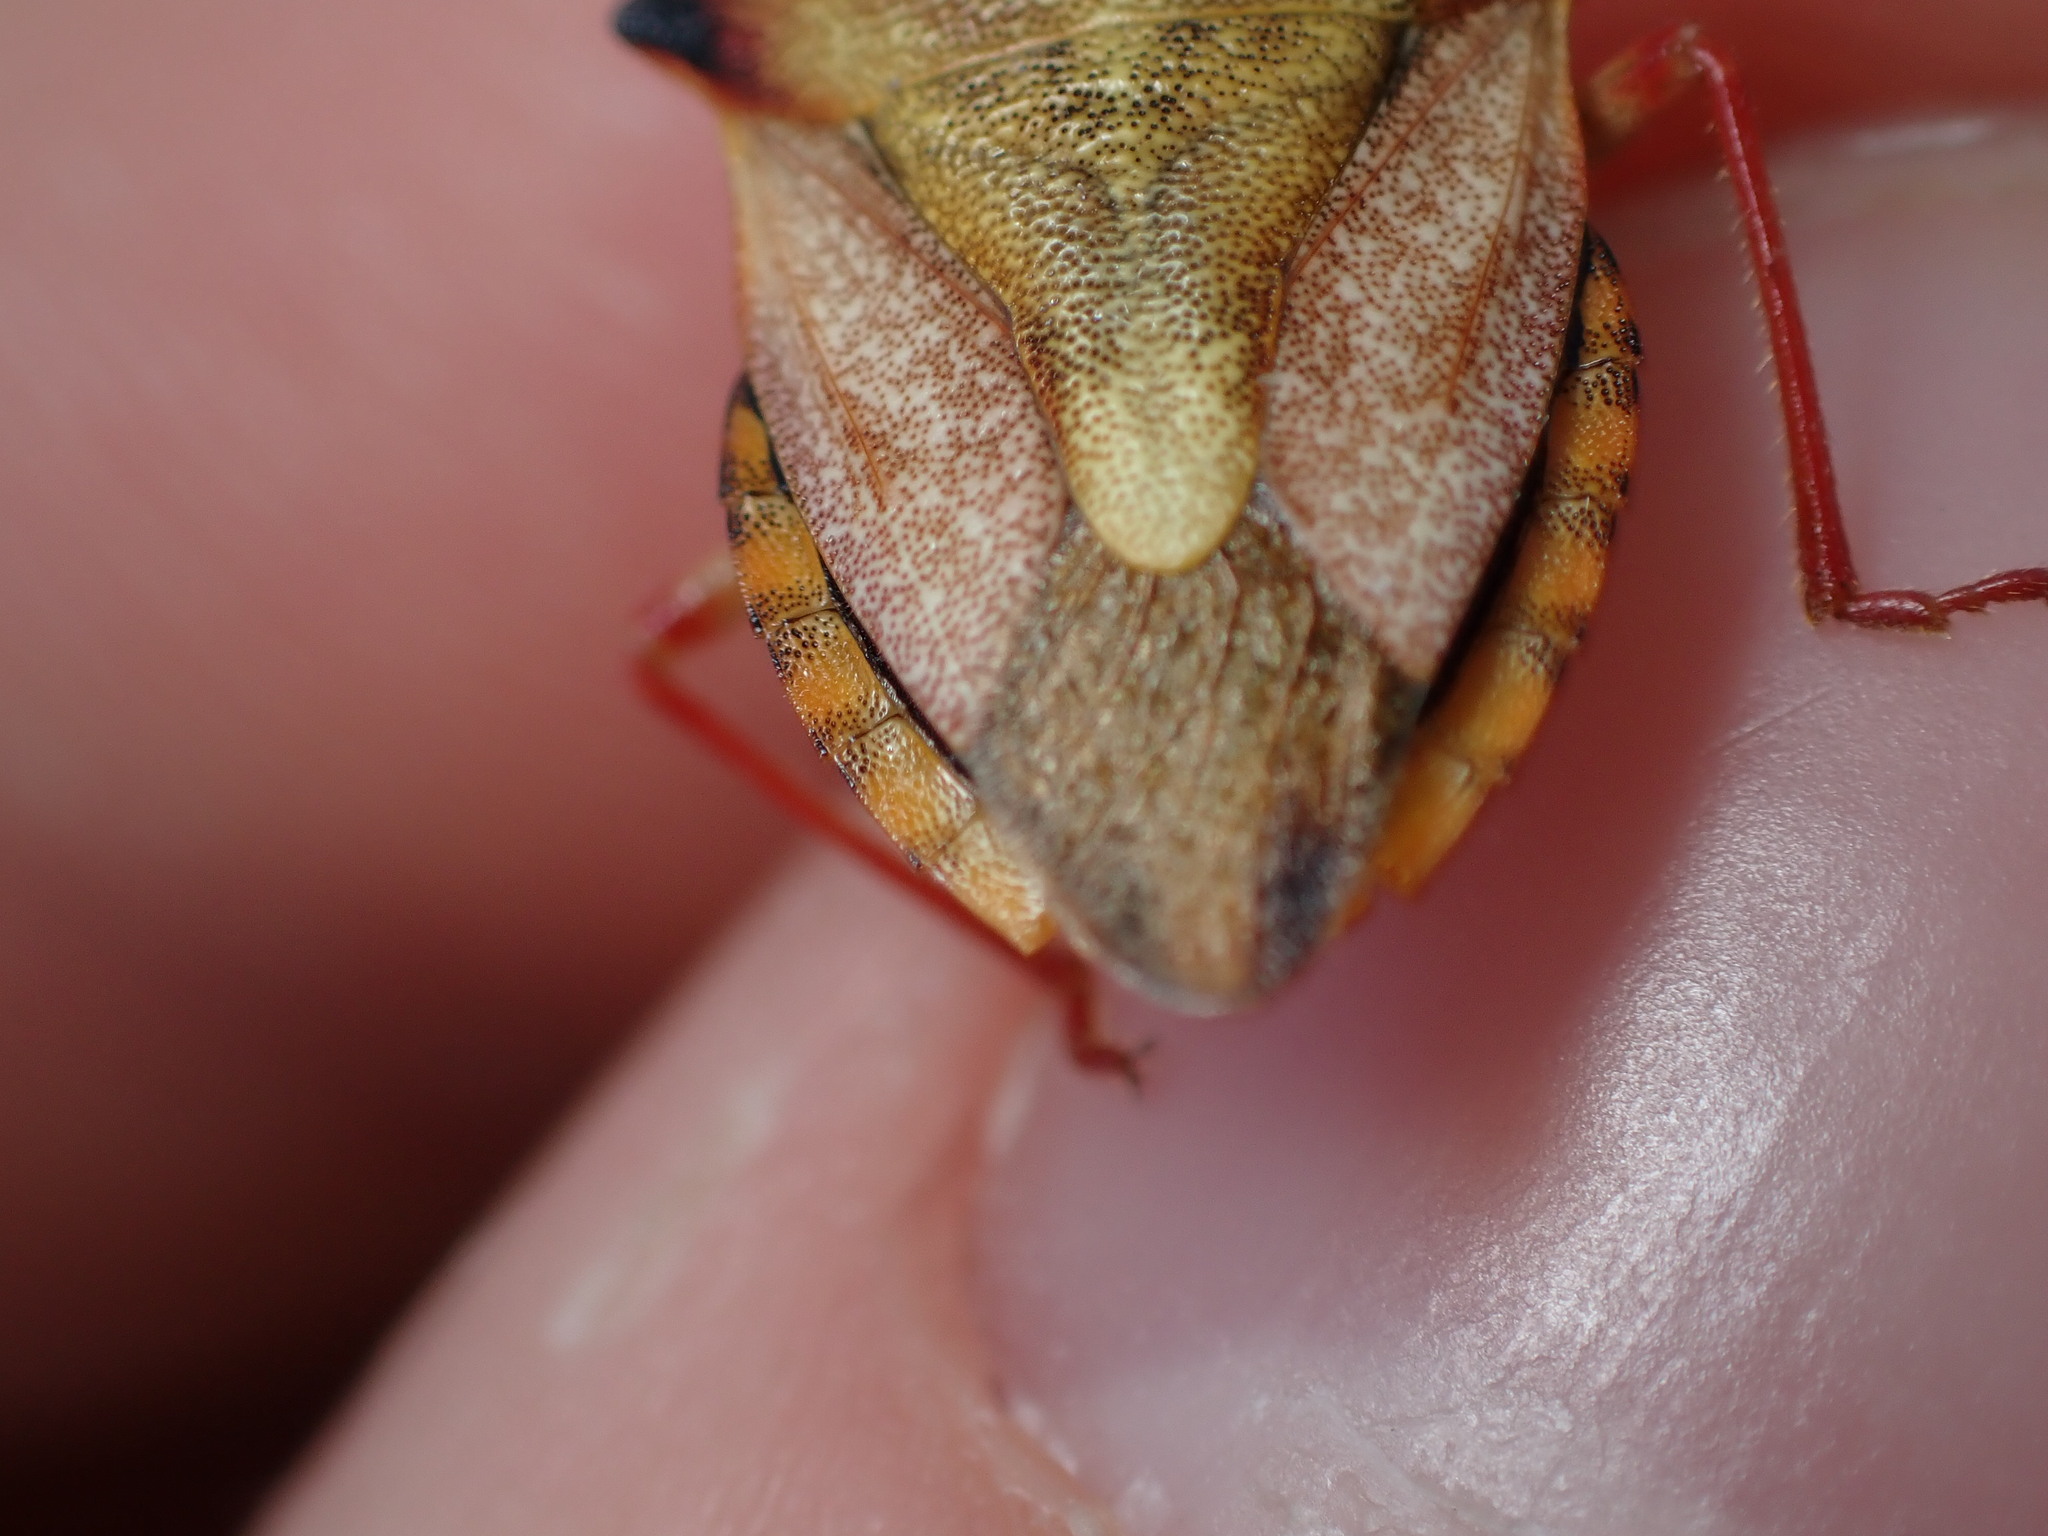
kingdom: Animalia
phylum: Arthropoda
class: Insecta
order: Hemiptera
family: Pentatomidae
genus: Carpocoris
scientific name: Carpocoris mediterraneus
